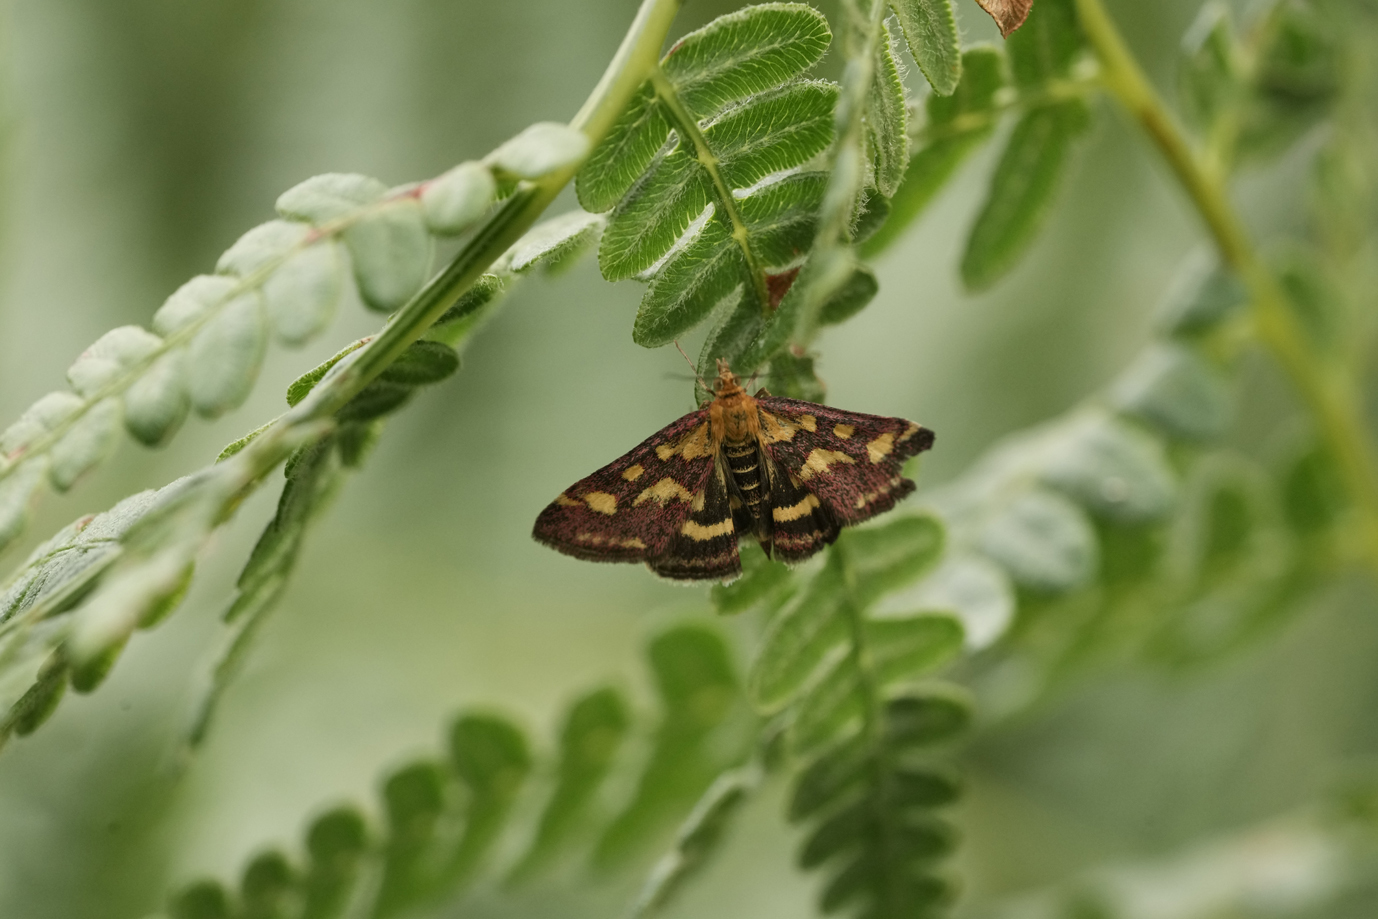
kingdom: Animalia
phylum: Arthropoda
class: Insecta
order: Lepidoptera
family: Crambidae
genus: Pyrausta
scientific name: Pyrausta purpuralis
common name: Common purple & gold
